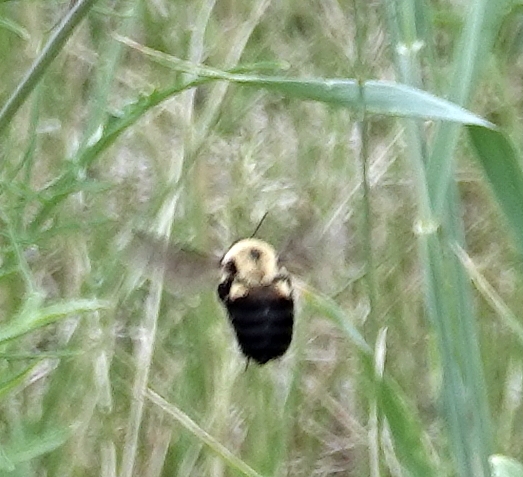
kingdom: Animalia
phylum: Arthropoda
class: Insecta
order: Hymenoptera
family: Apidae
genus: Bombus
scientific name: Bombus griseocollis
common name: Brown-belted bumble bee
